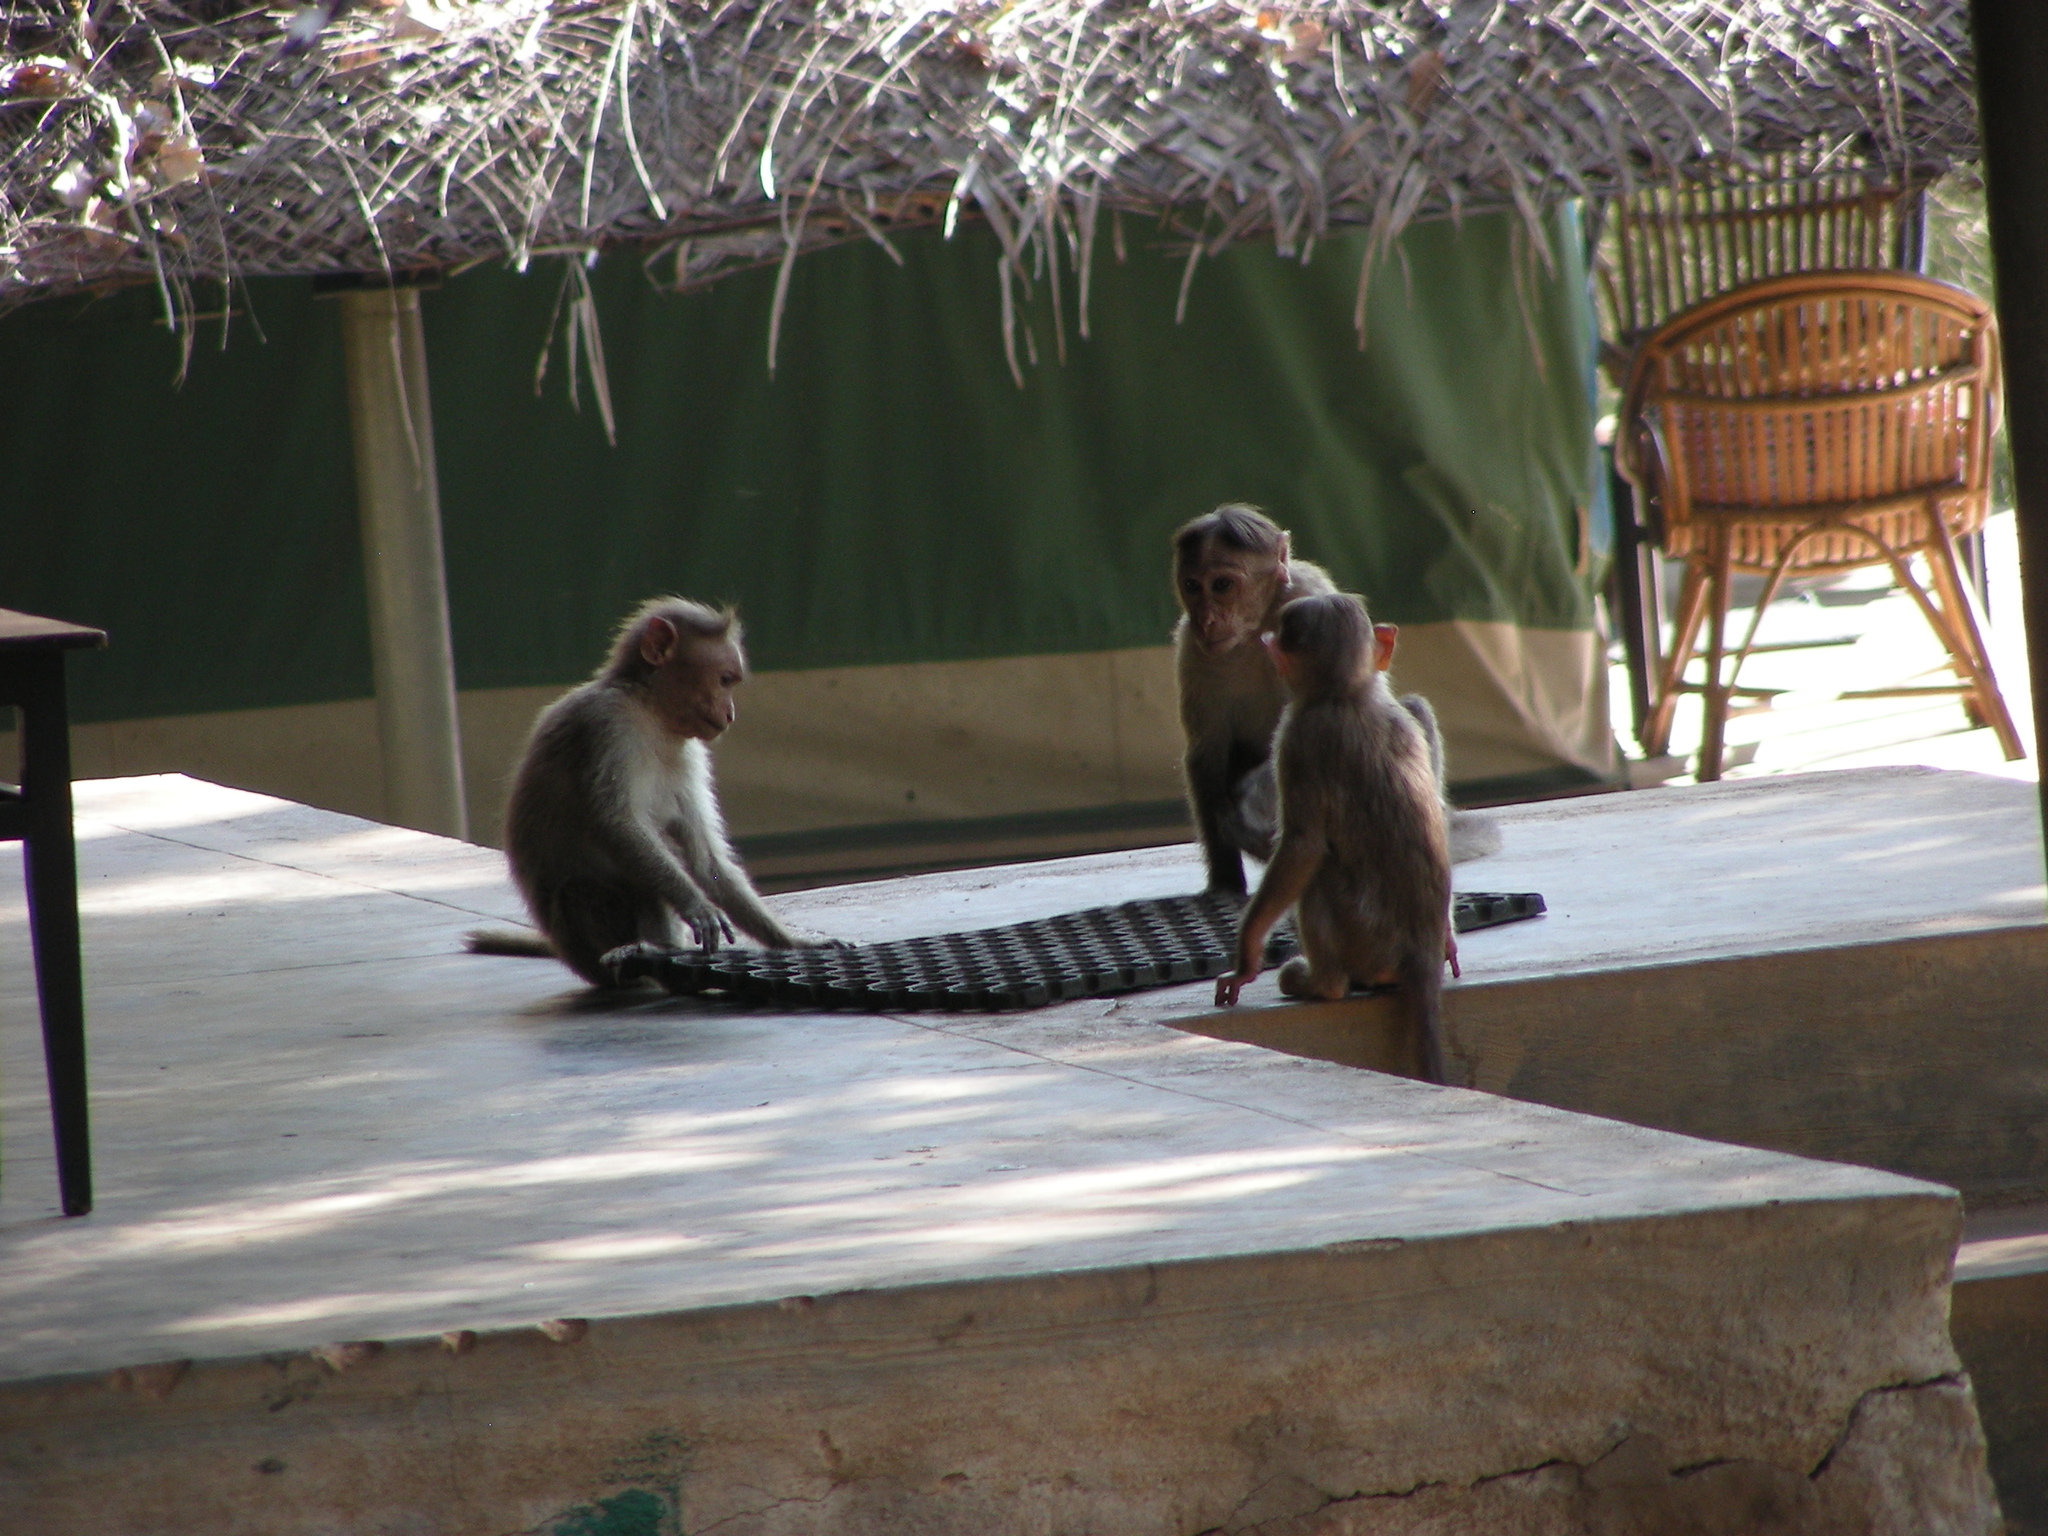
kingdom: Animalia
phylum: Chordata
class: Mammalia
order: Primates
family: Cercopithecidae
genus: Macaca
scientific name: Macaca radiata
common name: Bonnet macaque
